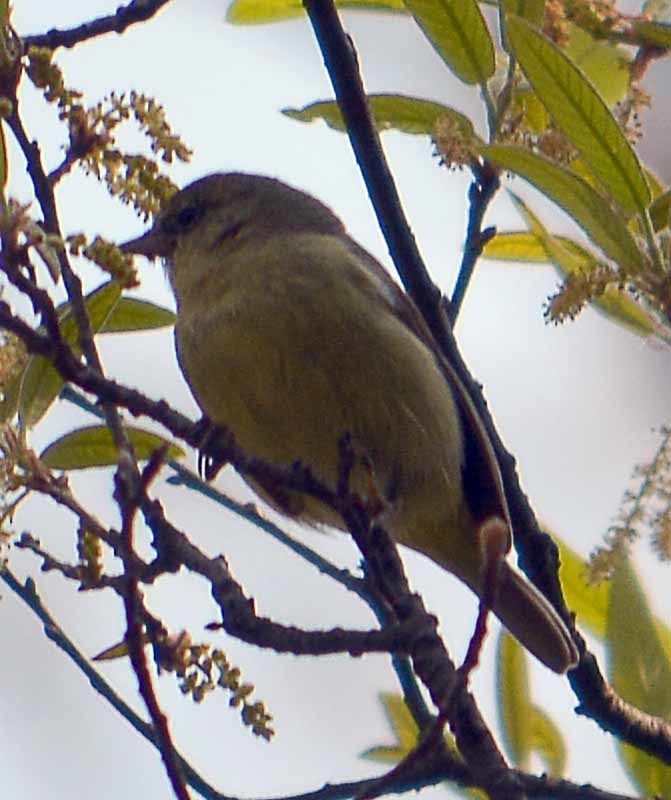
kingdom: Animalia
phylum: Chordata
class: Aves
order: Passeriformes
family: Parulidae
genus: Leiothlypis
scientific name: Leiothlypis celata
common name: Orange-crowned warbler
